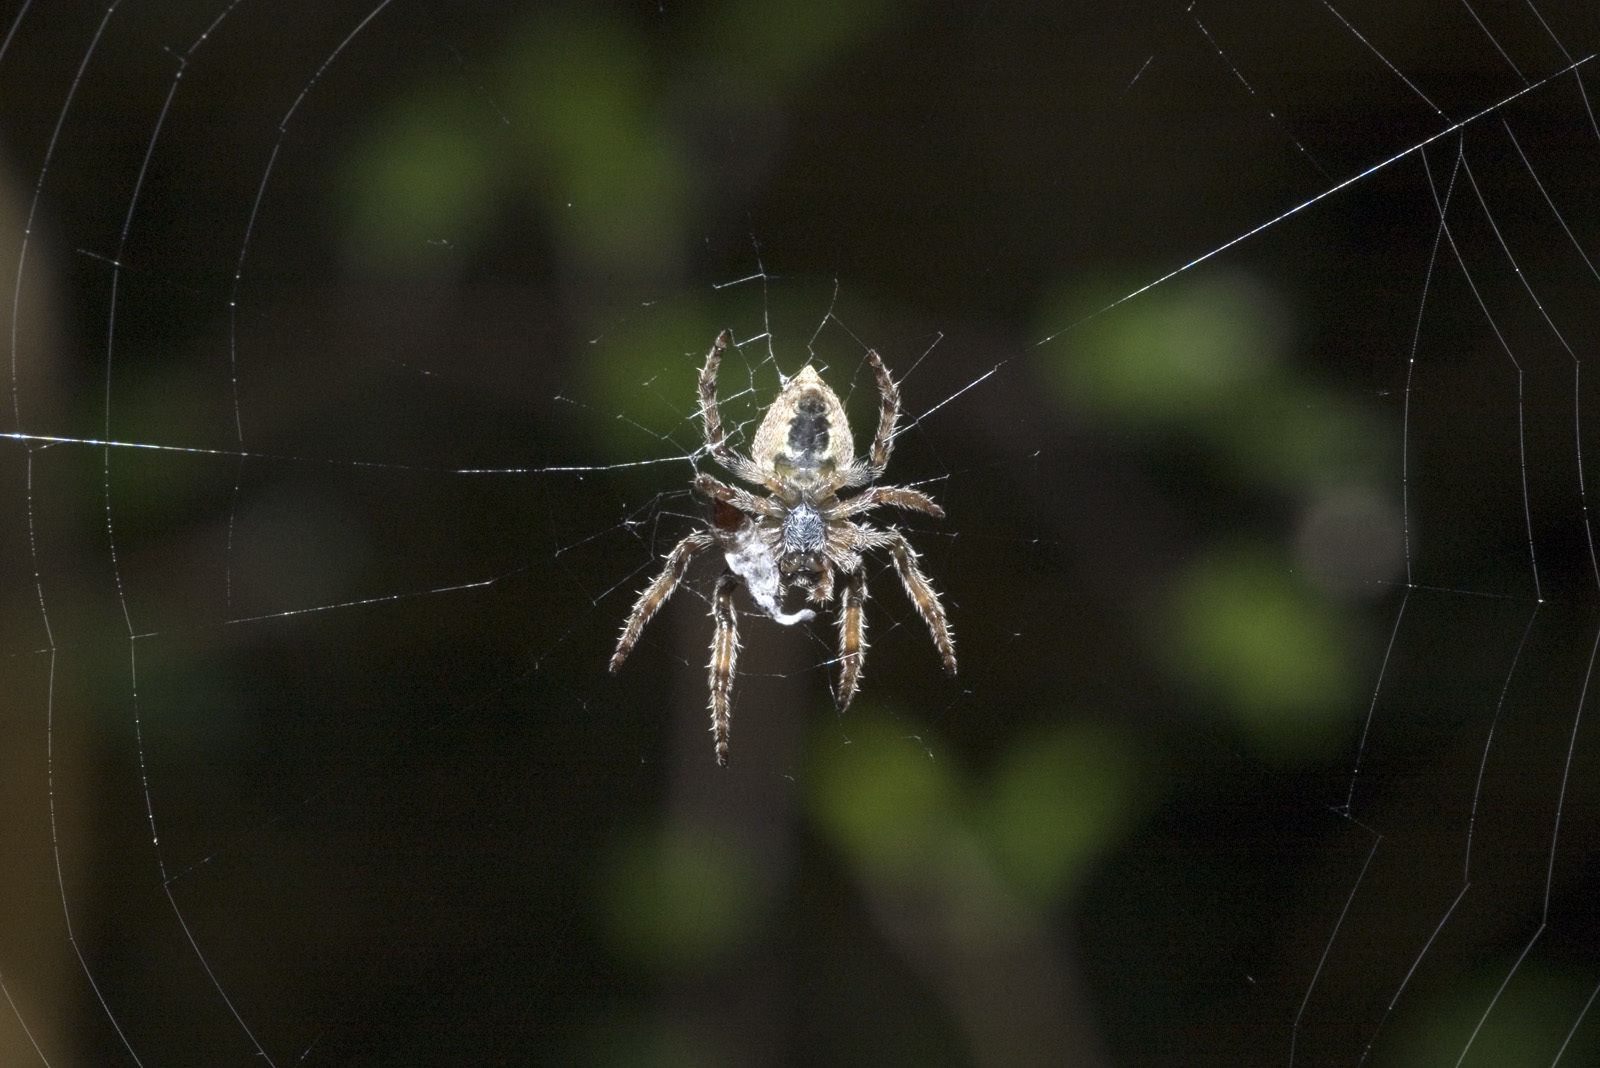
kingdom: Animalia
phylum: Arthropoda
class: Arachnida
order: Araneae
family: Araneidae
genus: Eriophora
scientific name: Eriophora pustulosa
